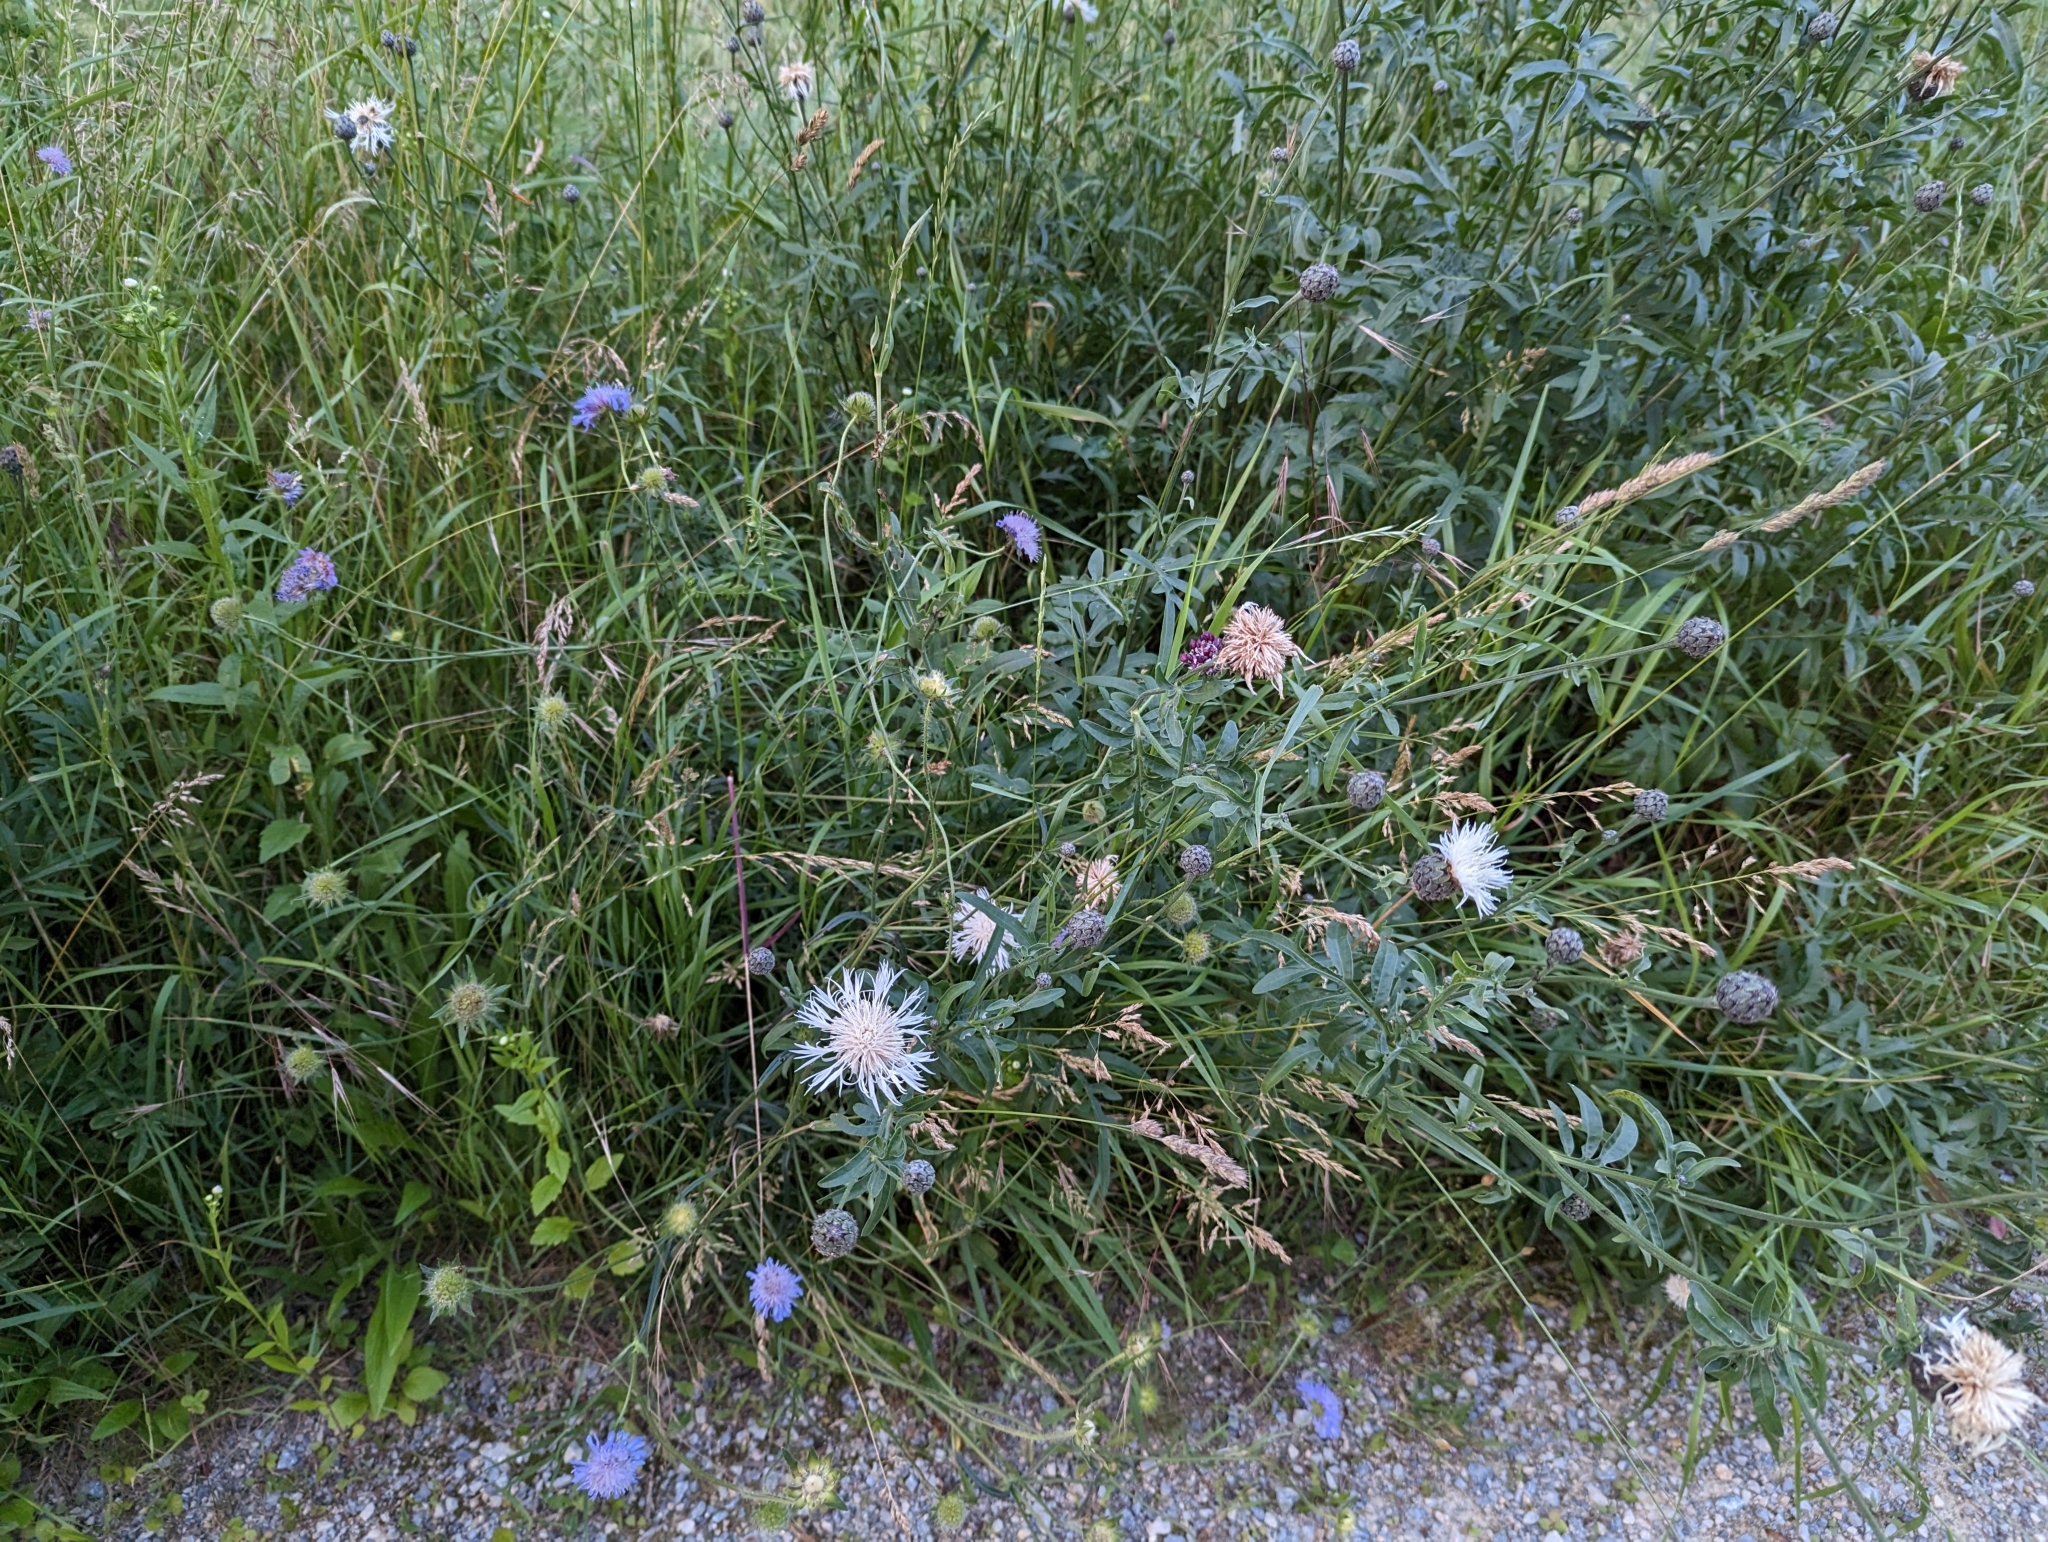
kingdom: Plantae
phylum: Tracheophyta
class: Magnoliopsida
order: Asterales
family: Asteraceae
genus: Centaurea
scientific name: Centaurea scabiosa
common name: Greater knapweed
